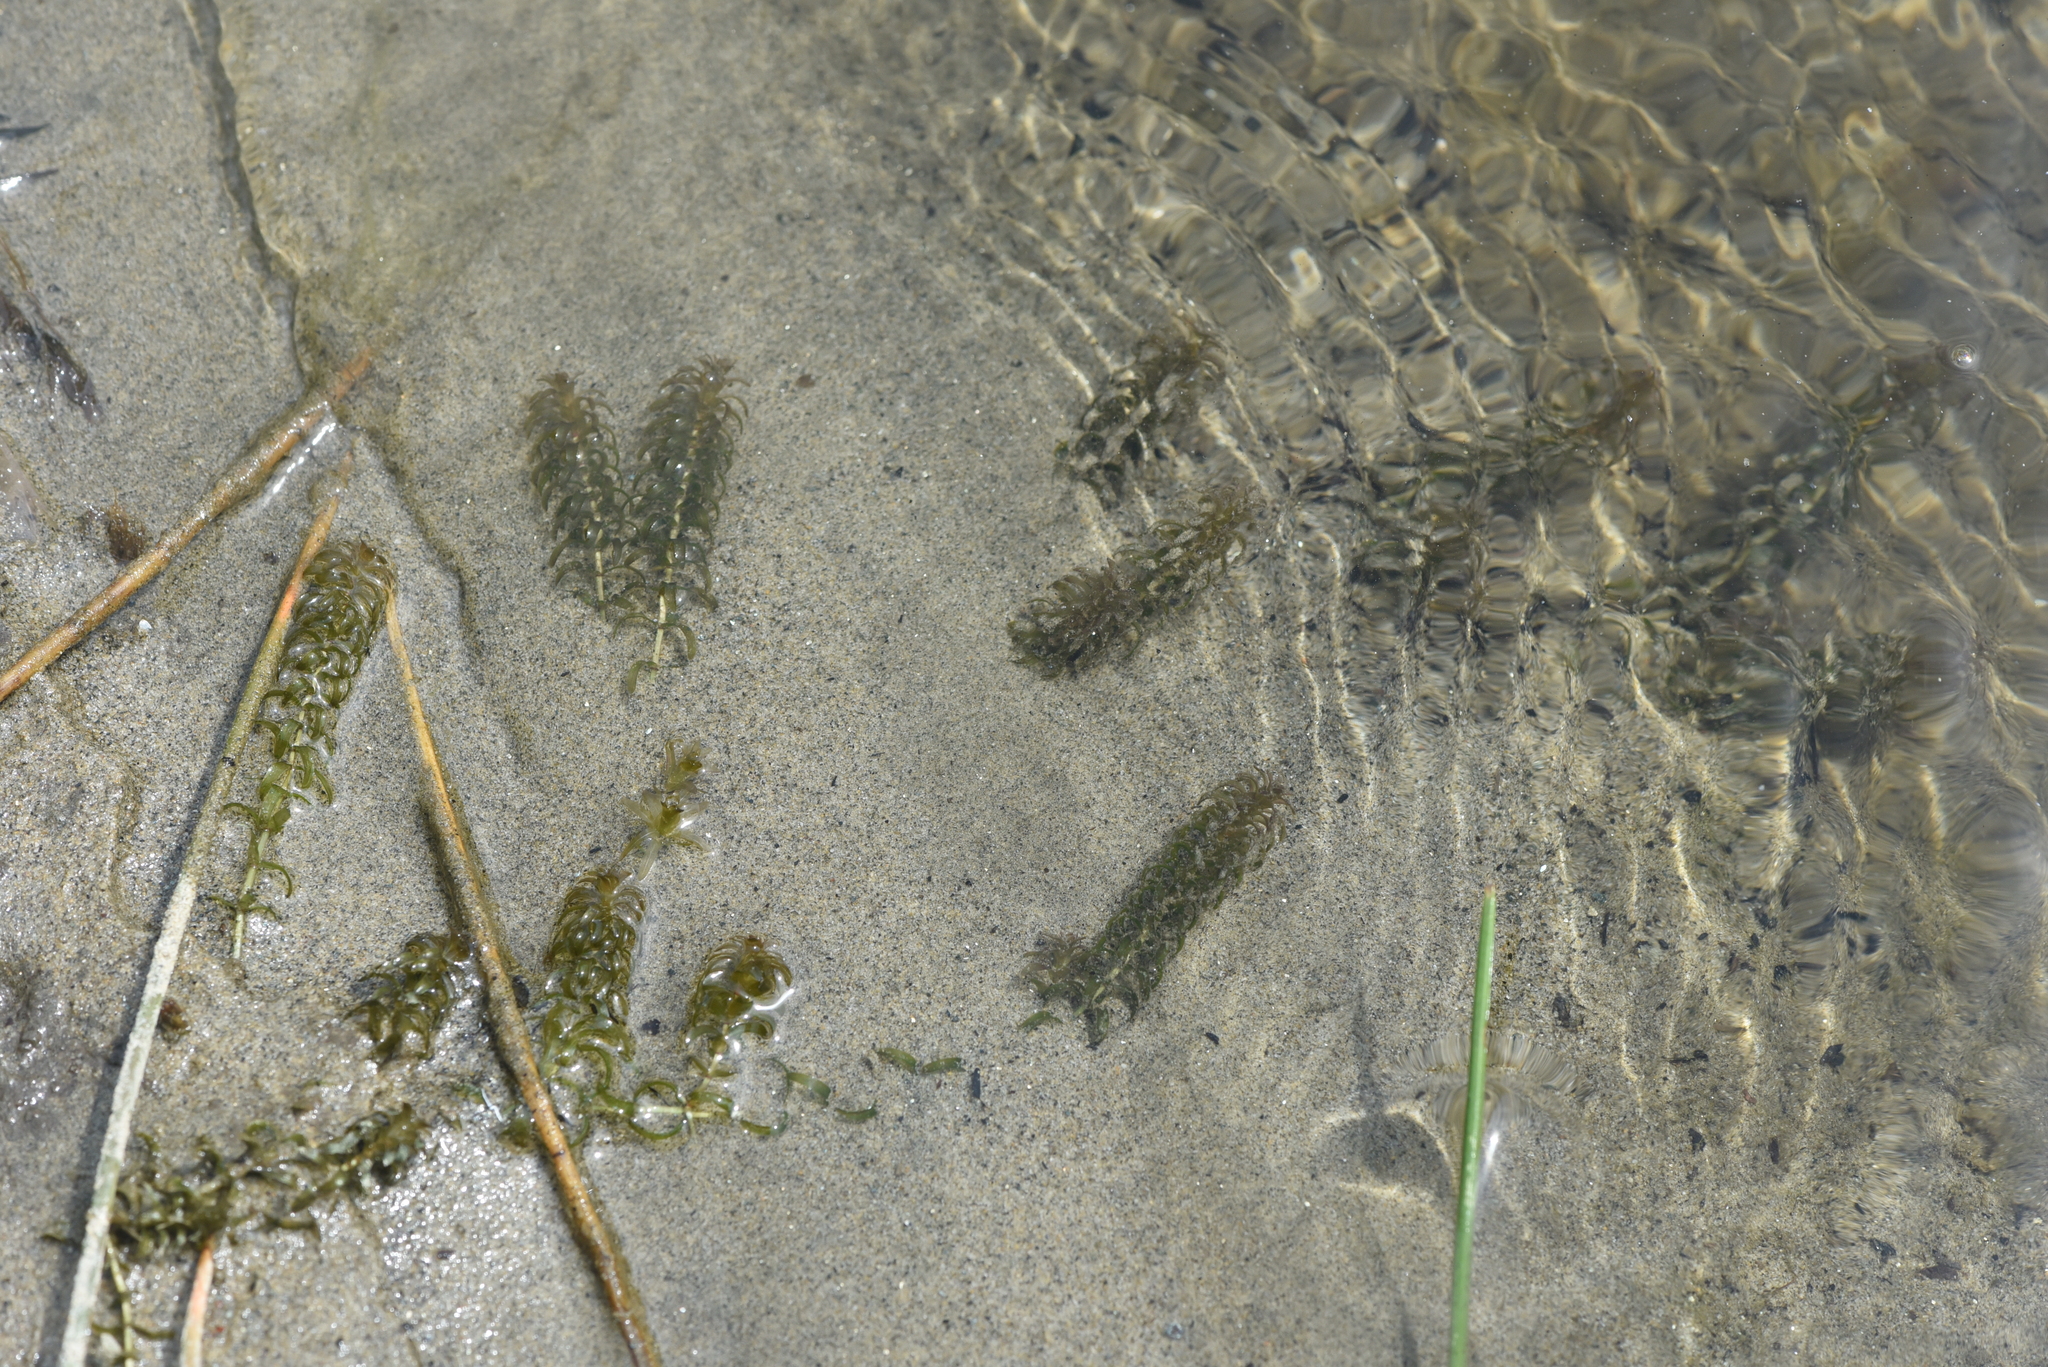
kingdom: Plantae
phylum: Tracheophyta
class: Liliopsida
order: Alismatales
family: Hydrocharitaceae
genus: Elodea
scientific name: Elodea canadensis
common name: Canadian waterweed
